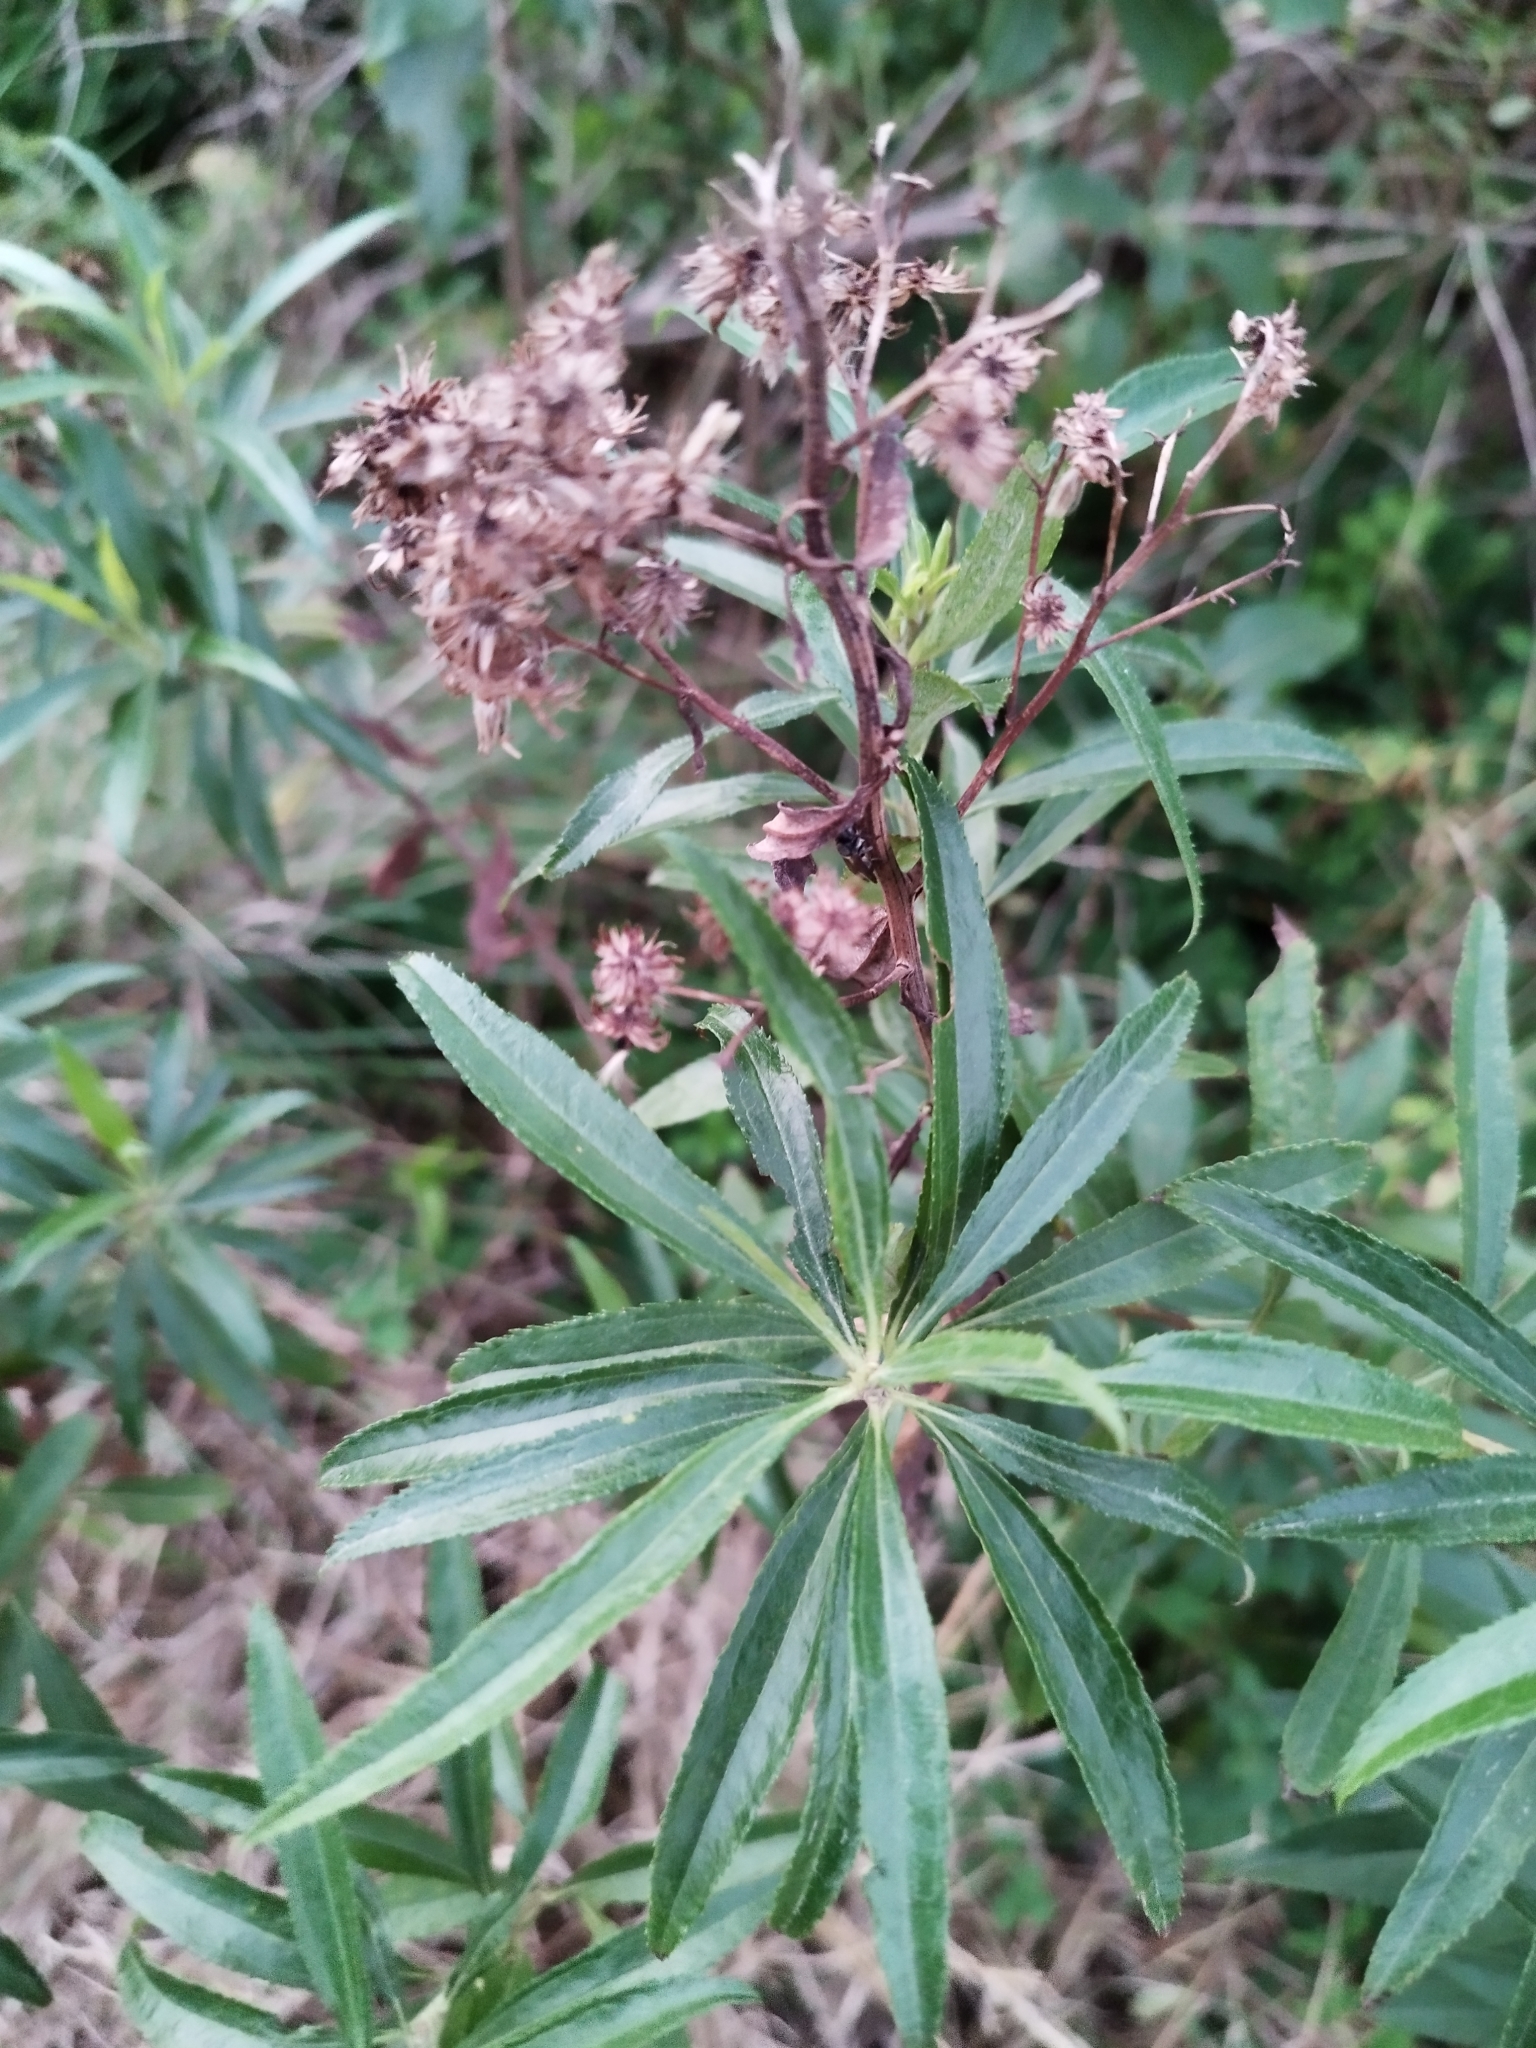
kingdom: Plantae
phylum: Tracheophyta
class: Magnoliopsida
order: Asterales
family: Asteraceae
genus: Baccharis
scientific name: Baccharis punctulata
